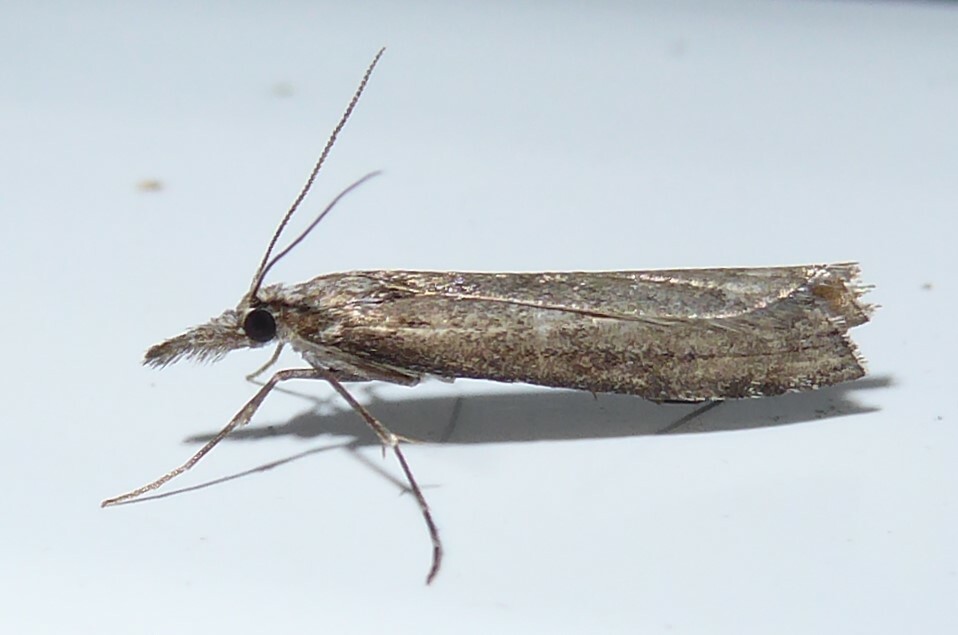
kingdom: Animalia
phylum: Arthropoda
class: Insecta
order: Lepidoptera
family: Crambidae
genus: Orocrambus
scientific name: Orocrambus cyclopicus
